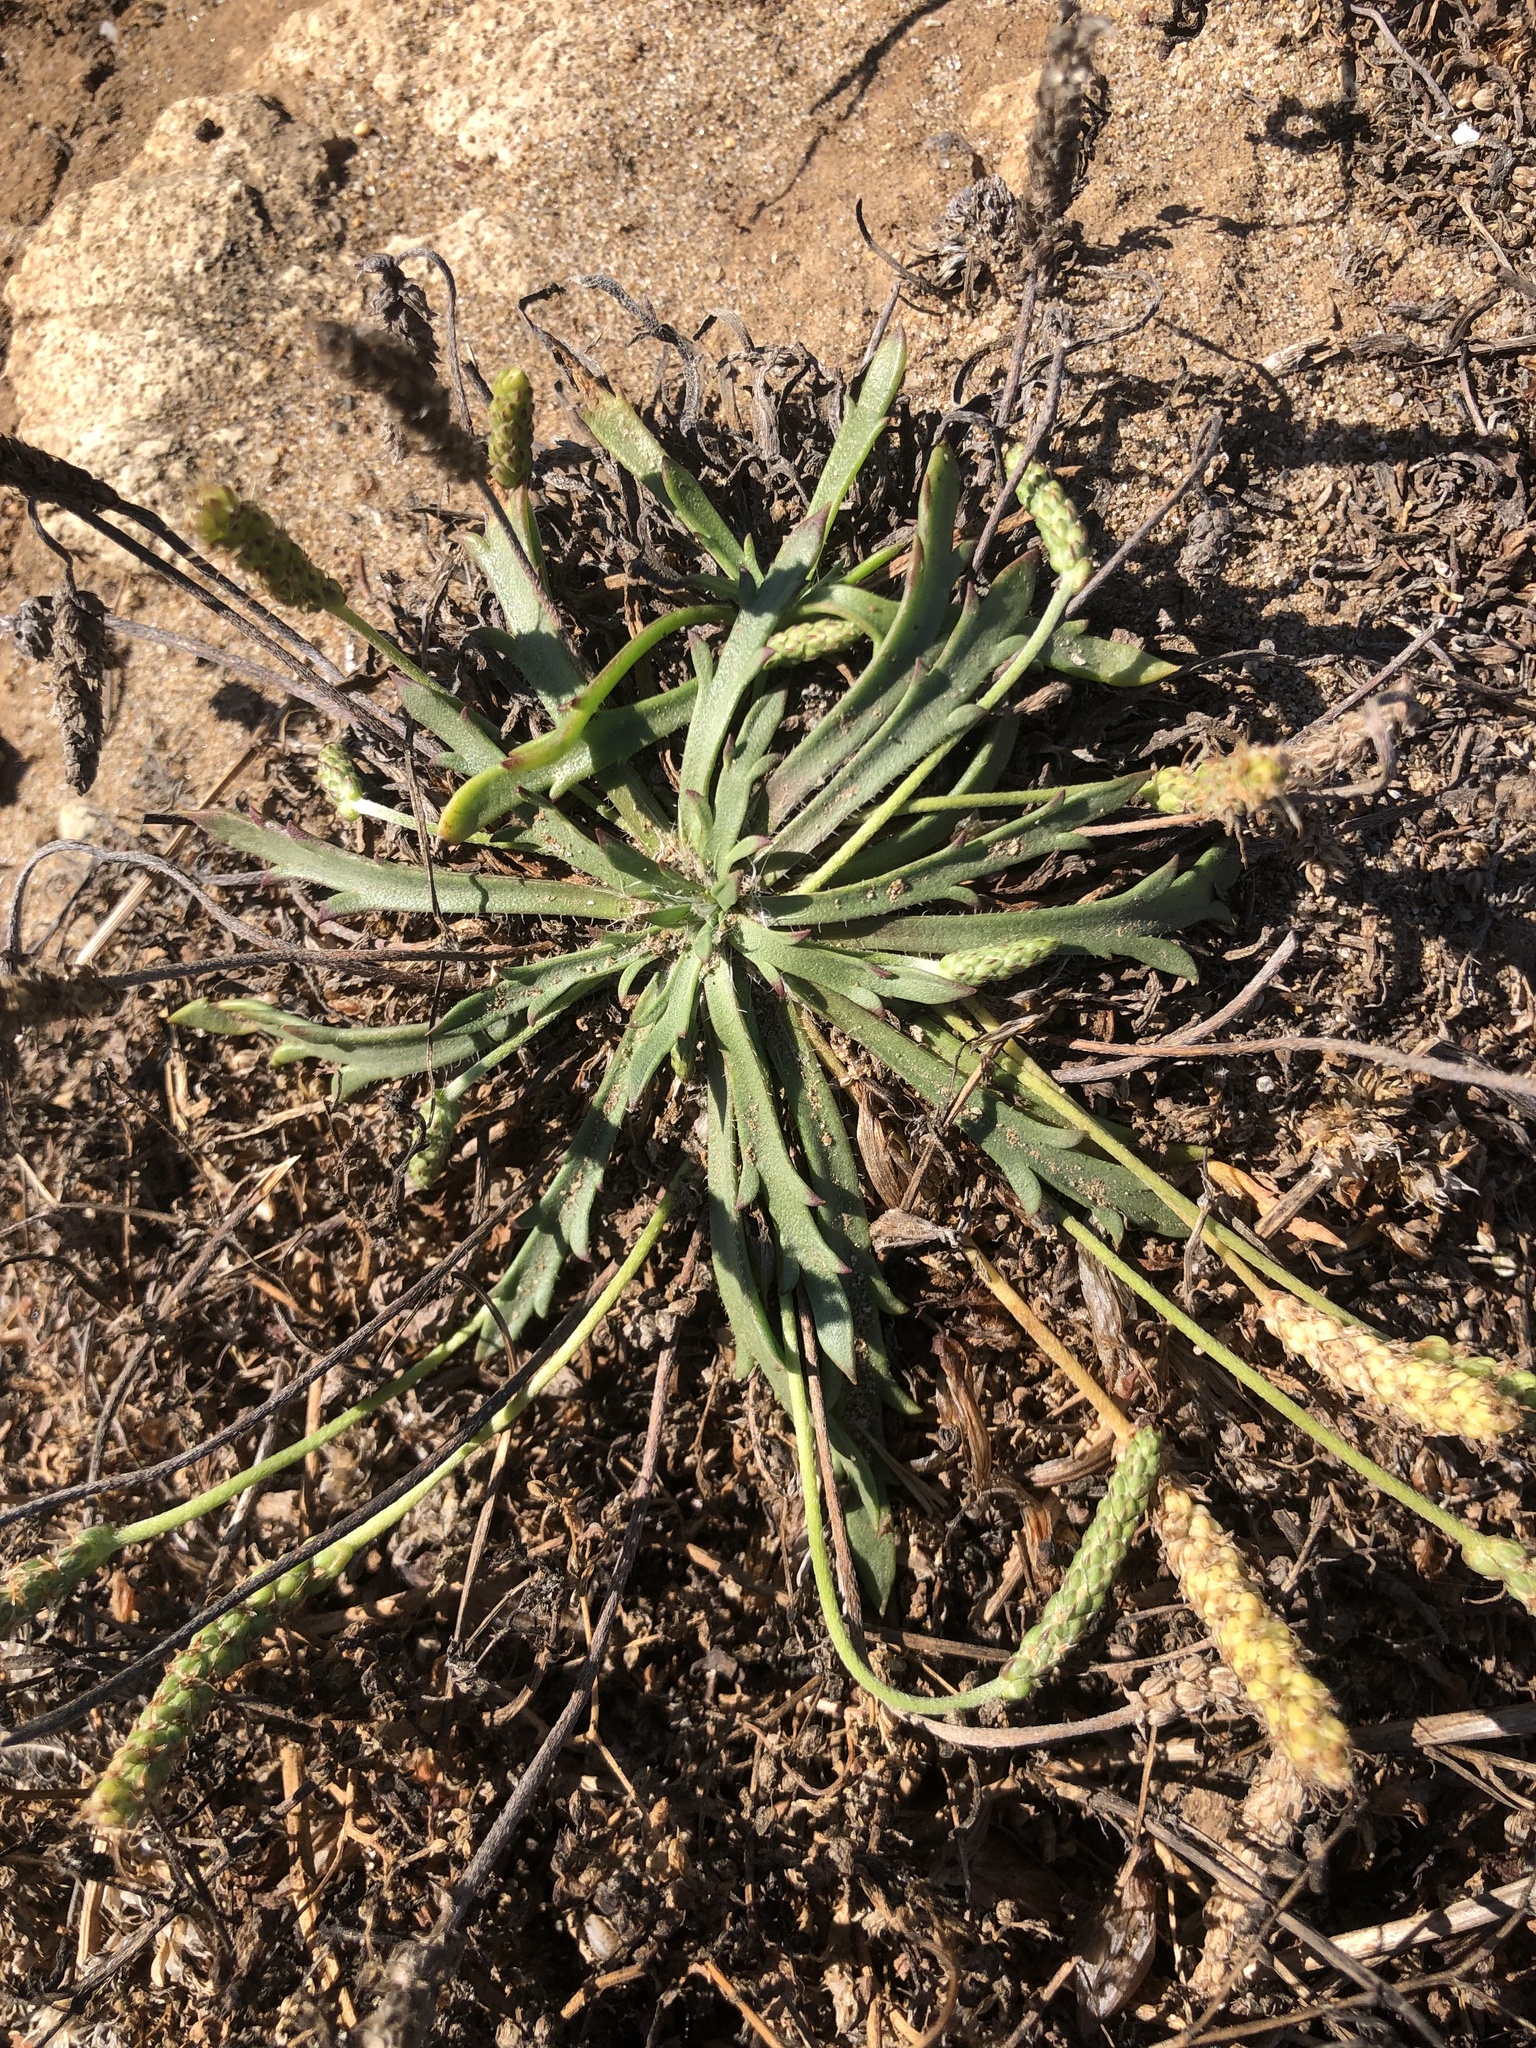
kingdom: Plantae
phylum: Tracheophyta
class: Magnoliopsida
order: Lamiales
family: Plantaginaceae
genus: Plantago
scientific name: Plantago coronopus
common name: Buck's-horn plantain
